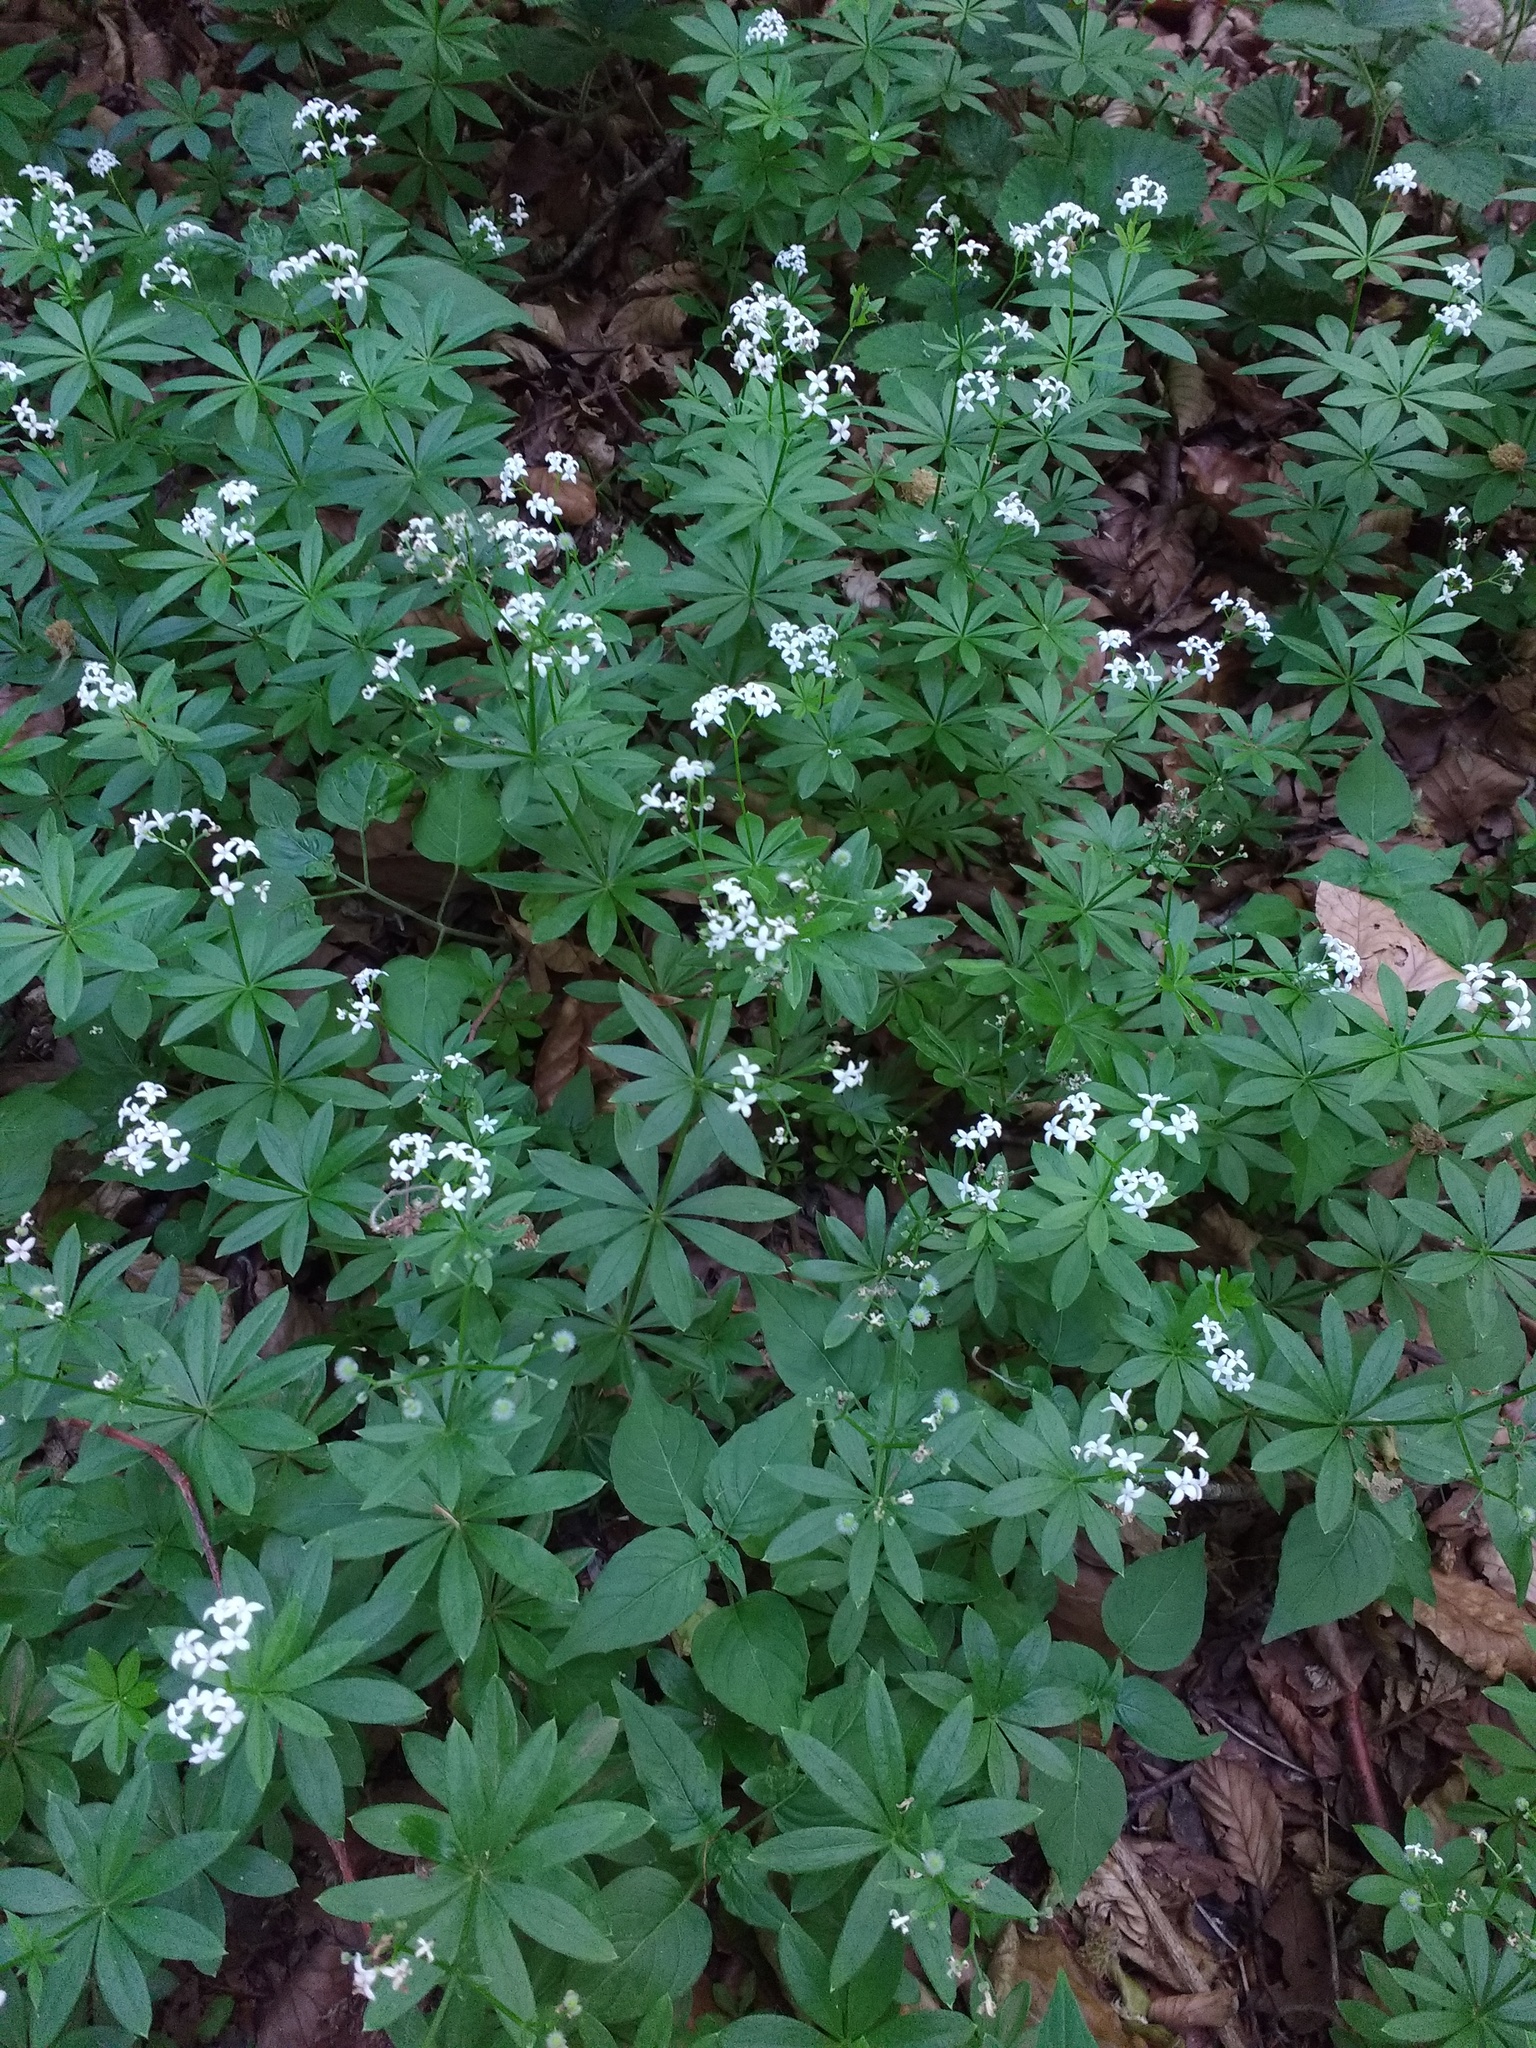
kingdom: Plantae
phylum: Tracheophyta
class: Magnoliopsida
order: Gentianales
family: Rubiaceae
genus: Galium
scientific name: Galium odoratum
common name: Sweet woodruff
